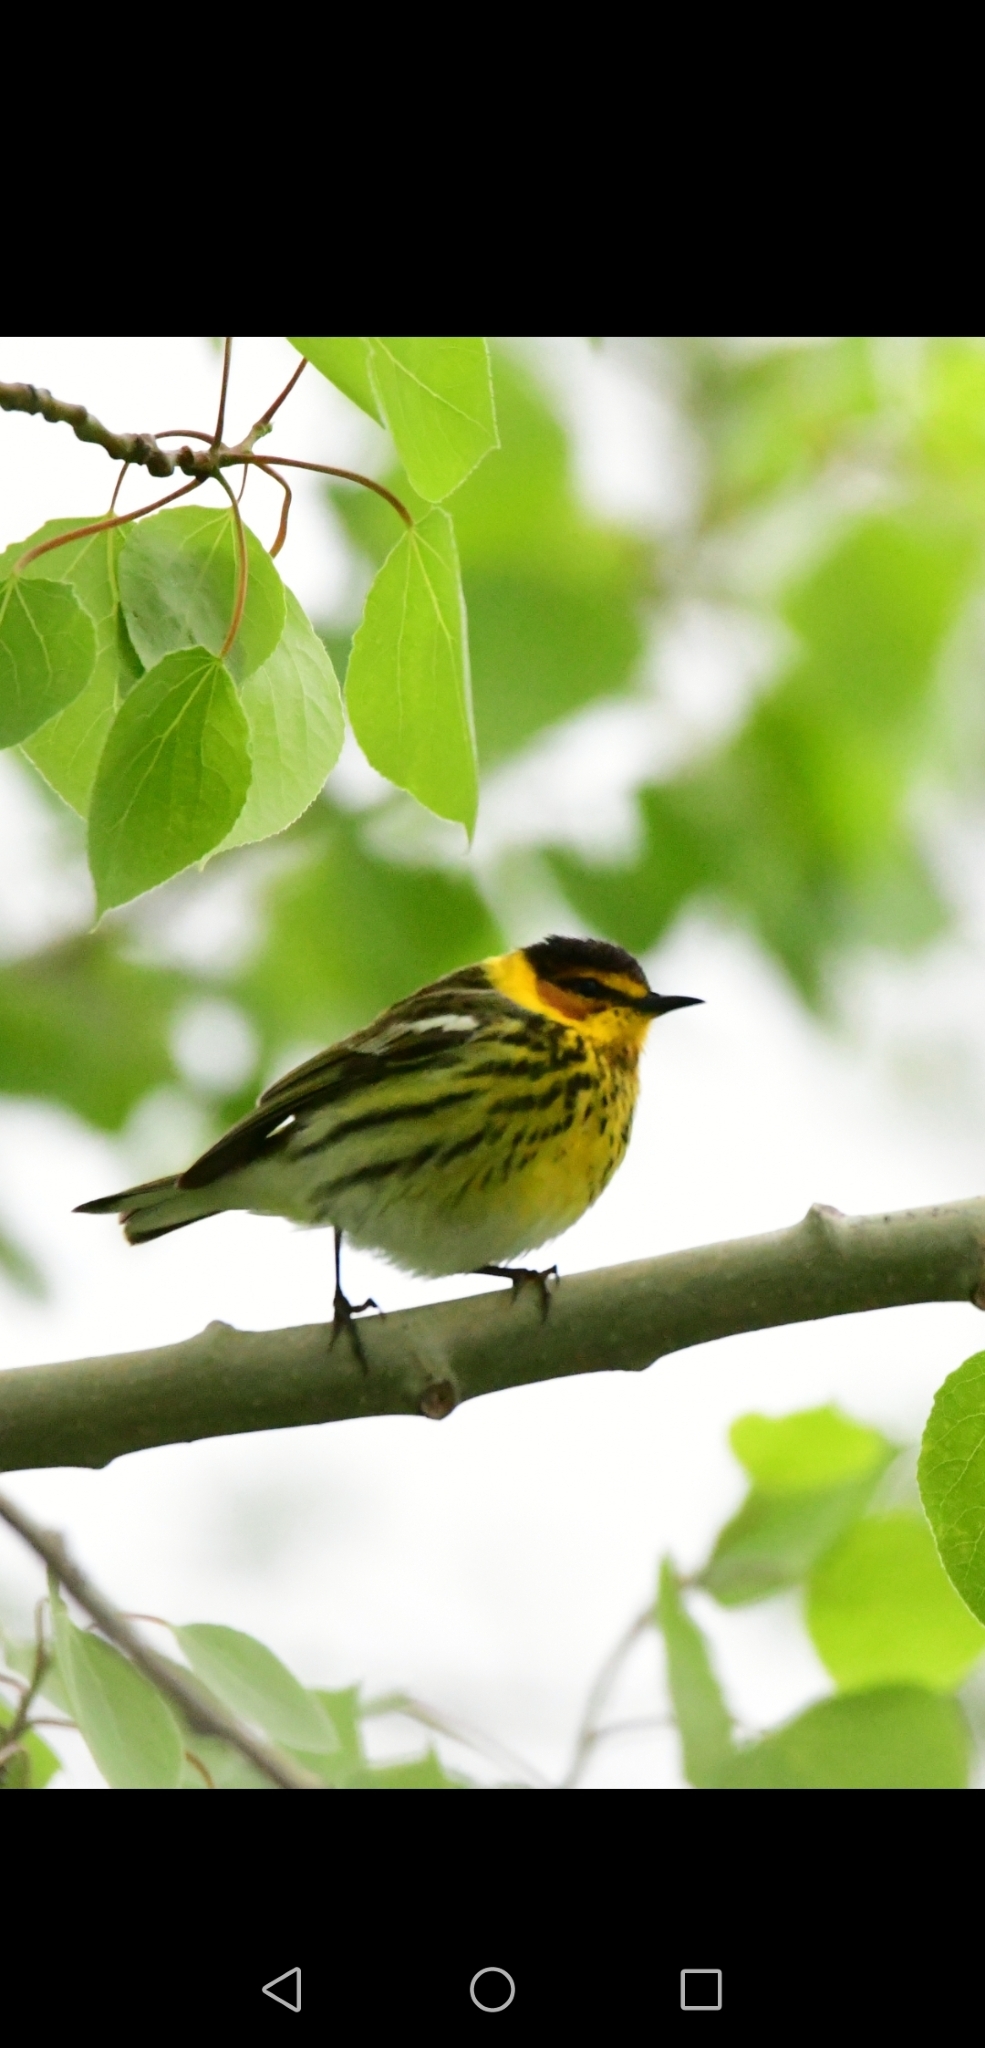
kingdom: Animalia
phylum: Chordata
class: Aves
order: Passeriformes
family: Parulidae
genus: Setophaga
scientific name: Setophaga tigrina
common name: Cape may warbler
